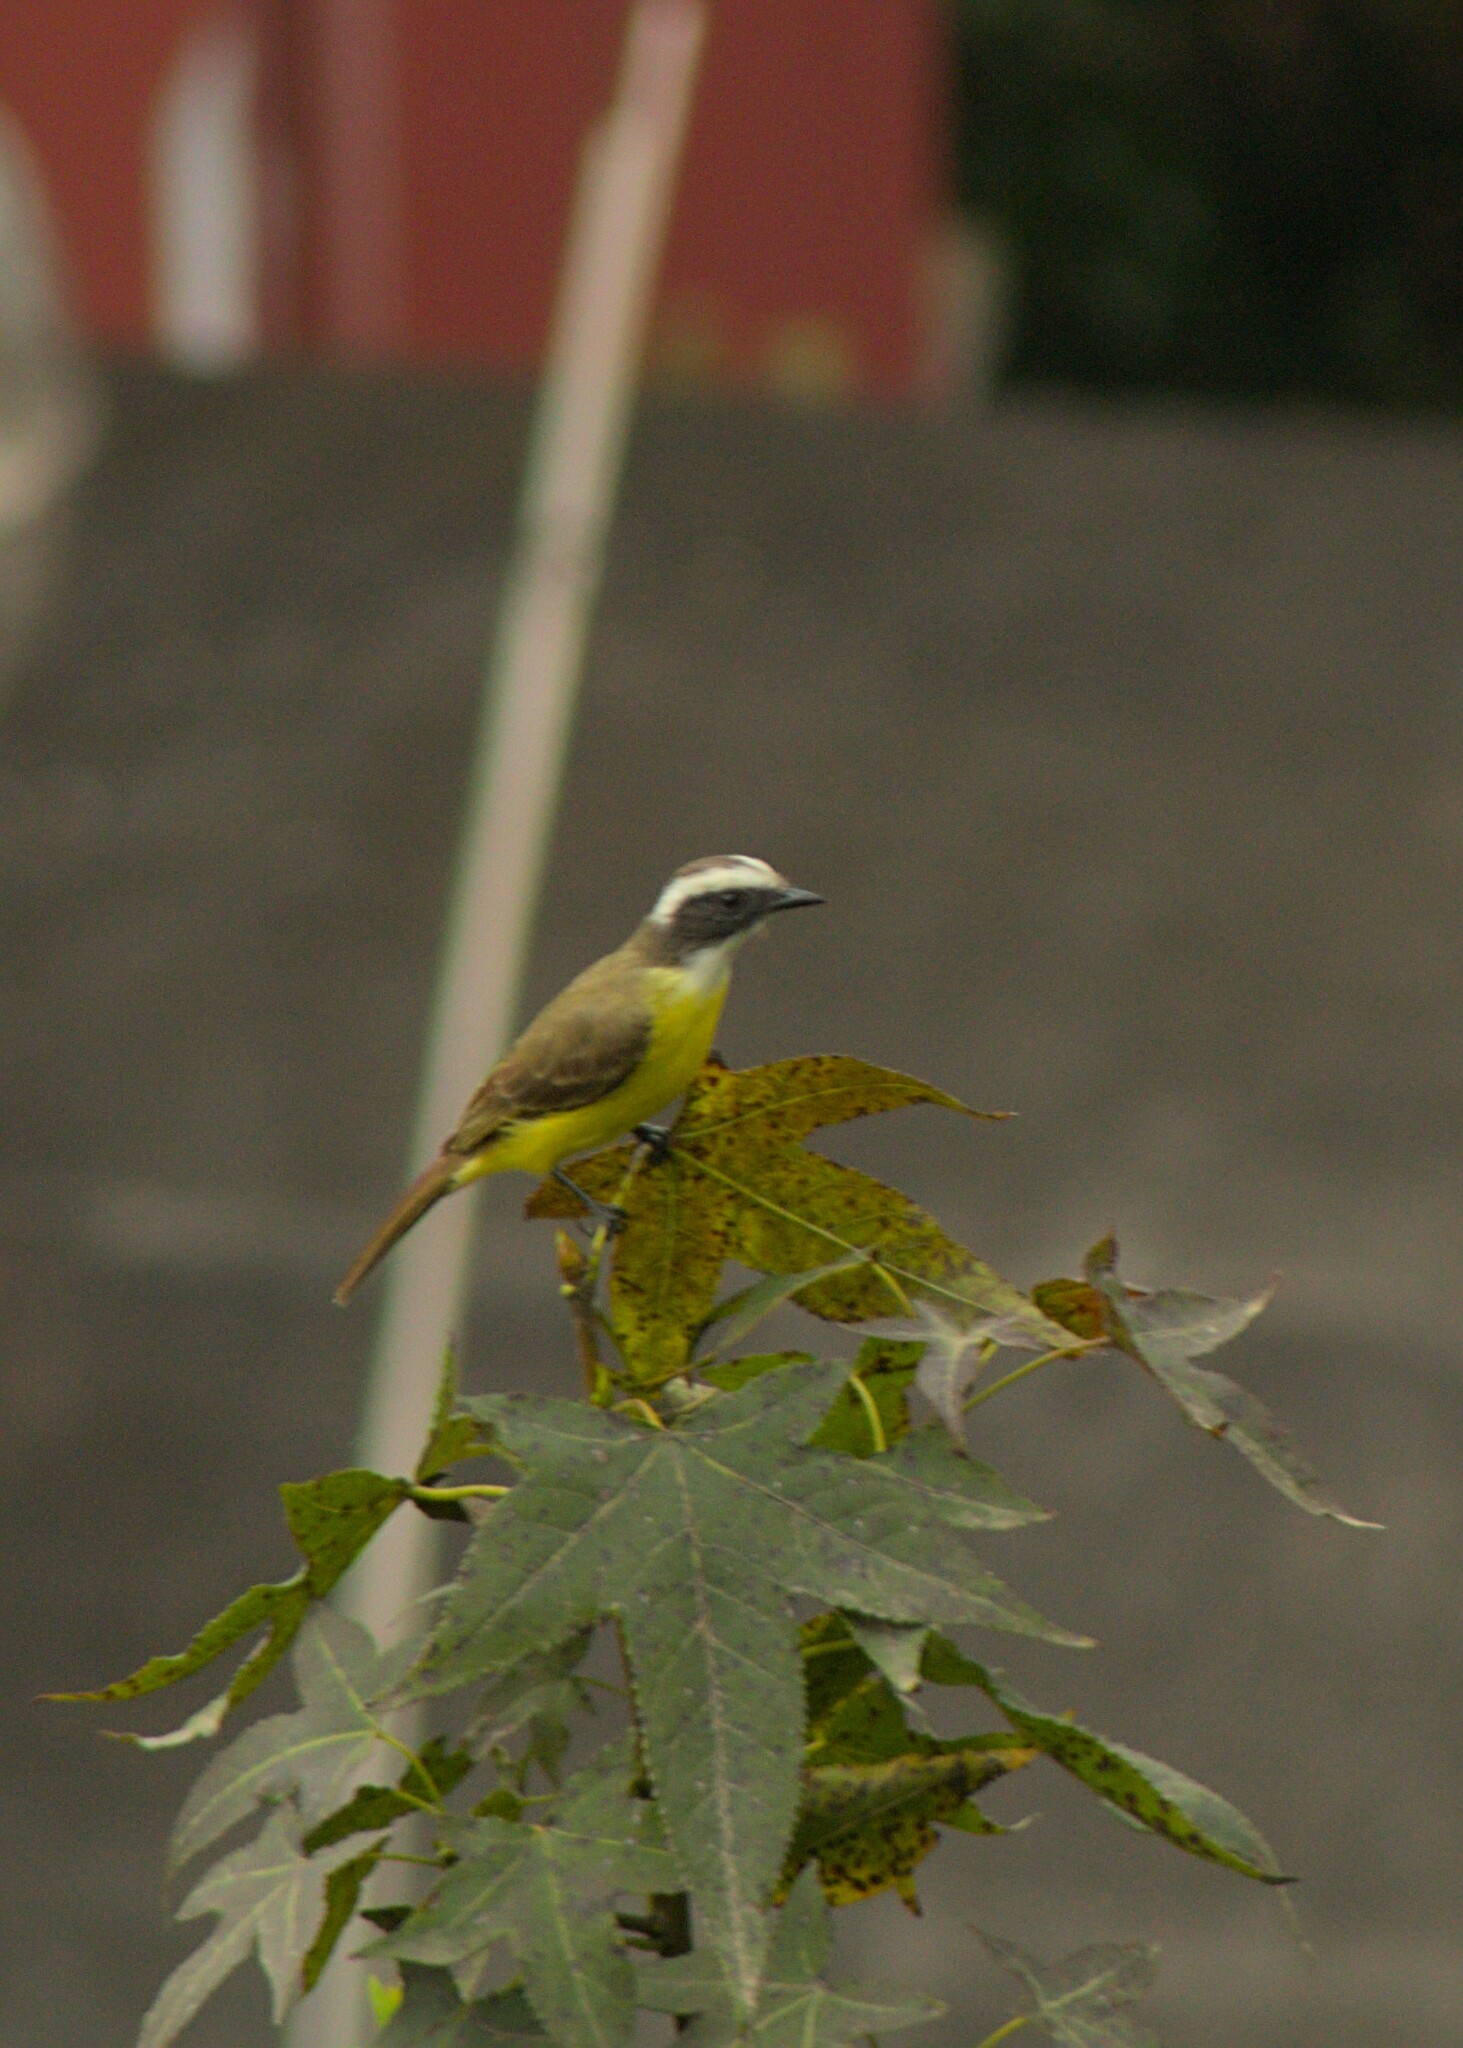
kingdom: Animalia
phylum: Chordata
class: Aves
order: Passeriformes
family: Tyrannidae
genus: Myiozetetes
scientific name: Myiozetetes similis
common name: Social flycatcher
